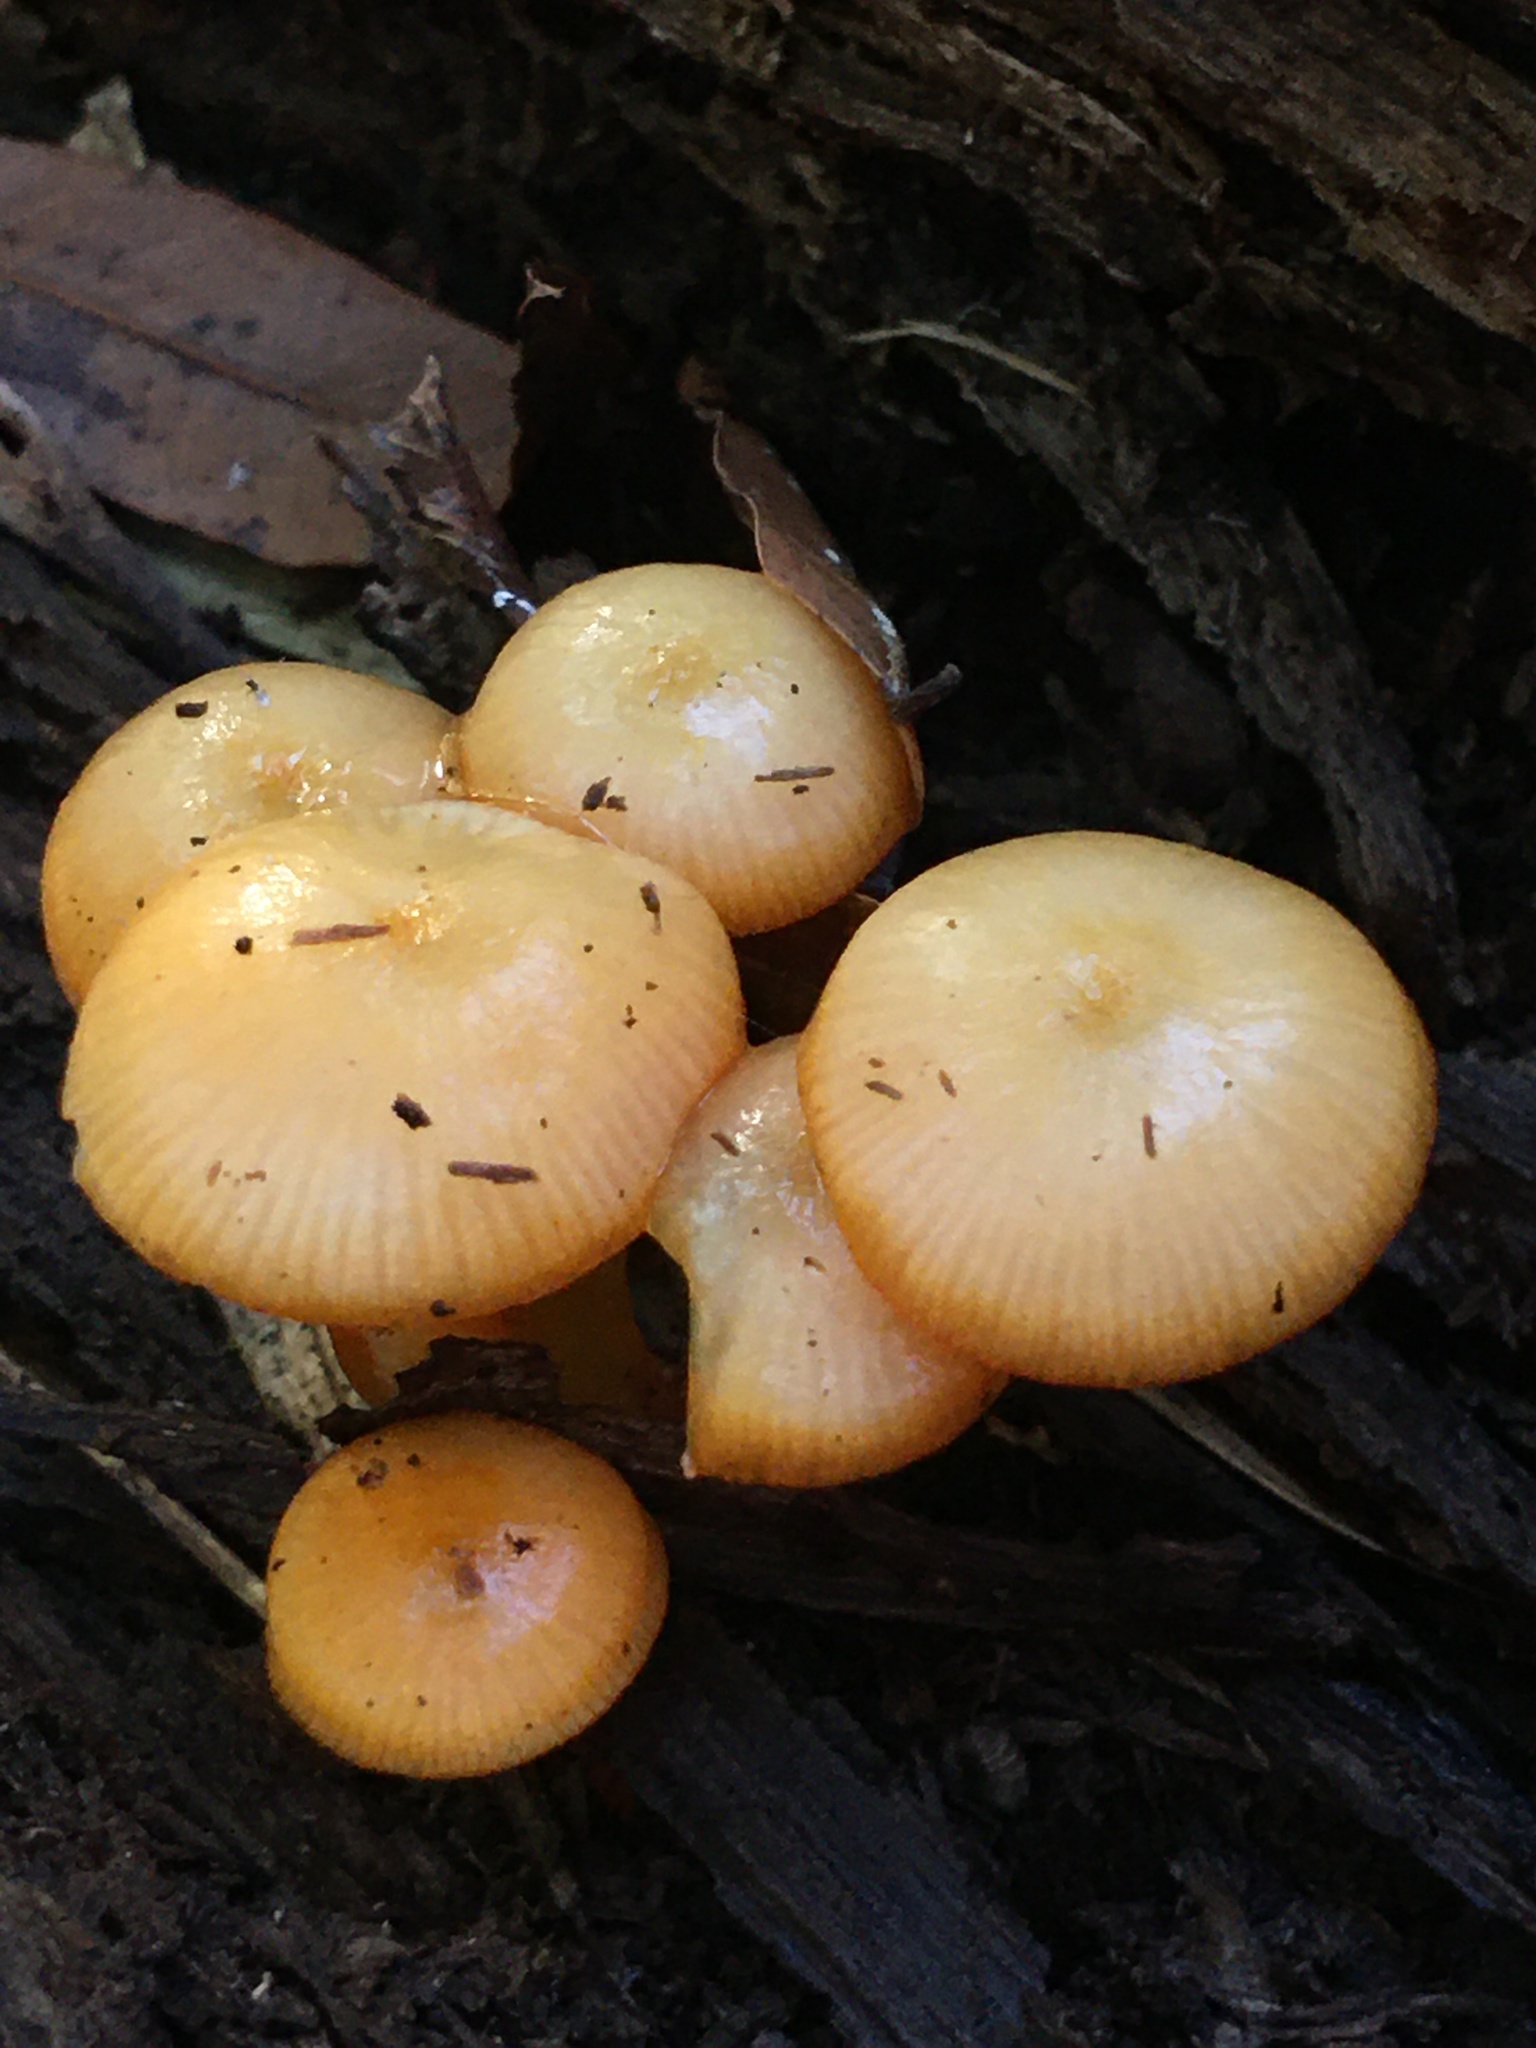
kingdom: Fungi
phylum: Basidiomycota
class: Agaricomycetes
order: Agaricales
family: Mycenaceae
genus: Mycena
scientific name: Mycena leaiana
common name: Orange mycena
